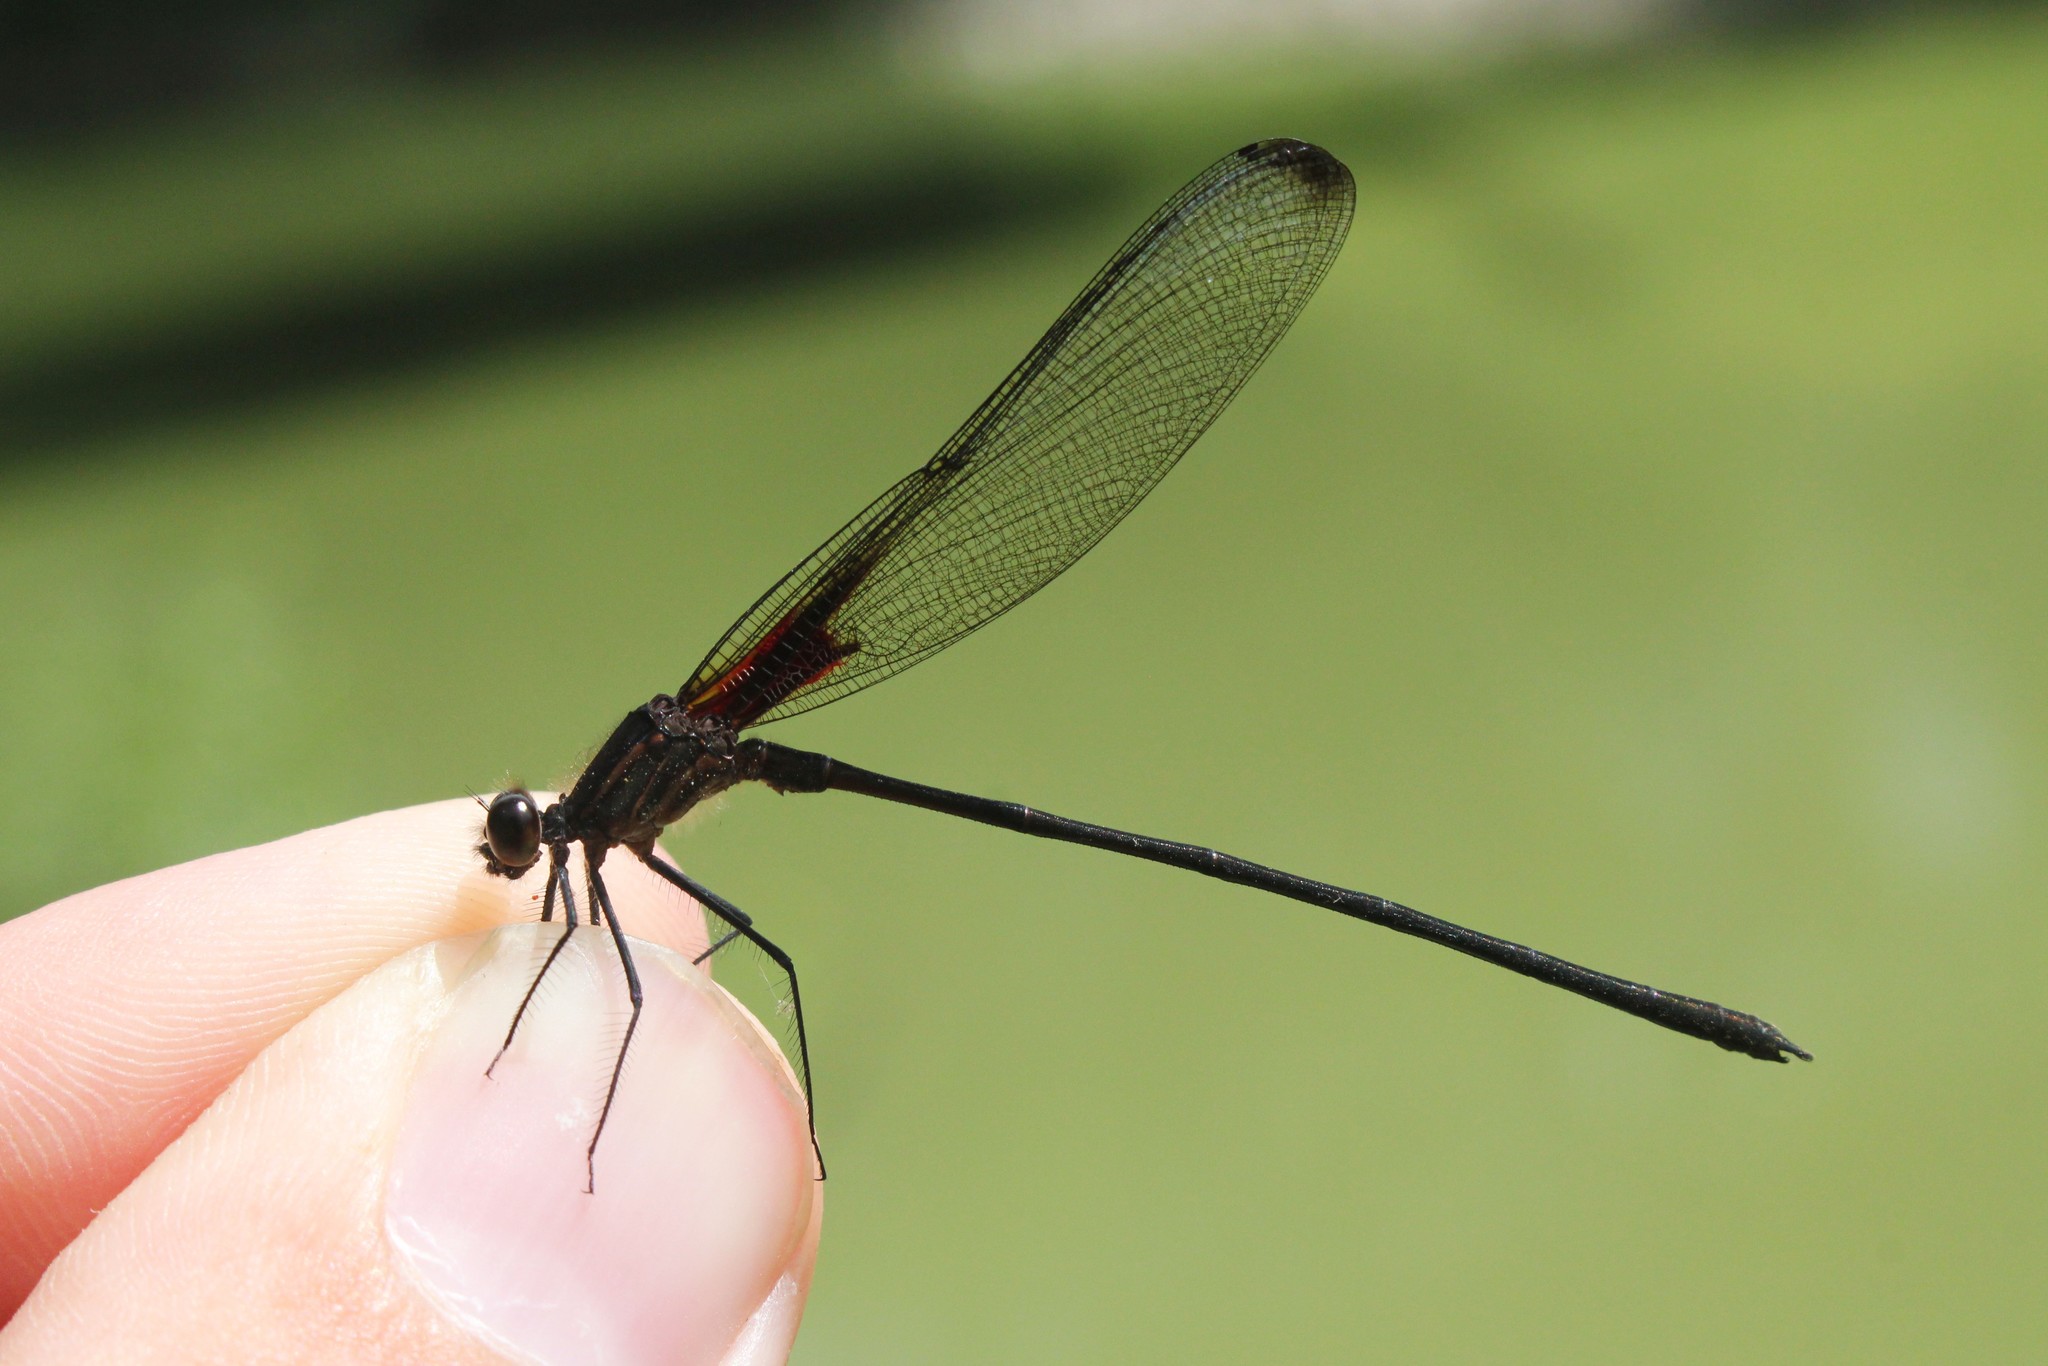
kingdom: Animalia
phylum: Arthropoda
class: Insecta
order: Odonata
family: Calopterygidae
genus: Hetaerina
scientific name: Hetaerina titia
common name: Smoky rubyspot
